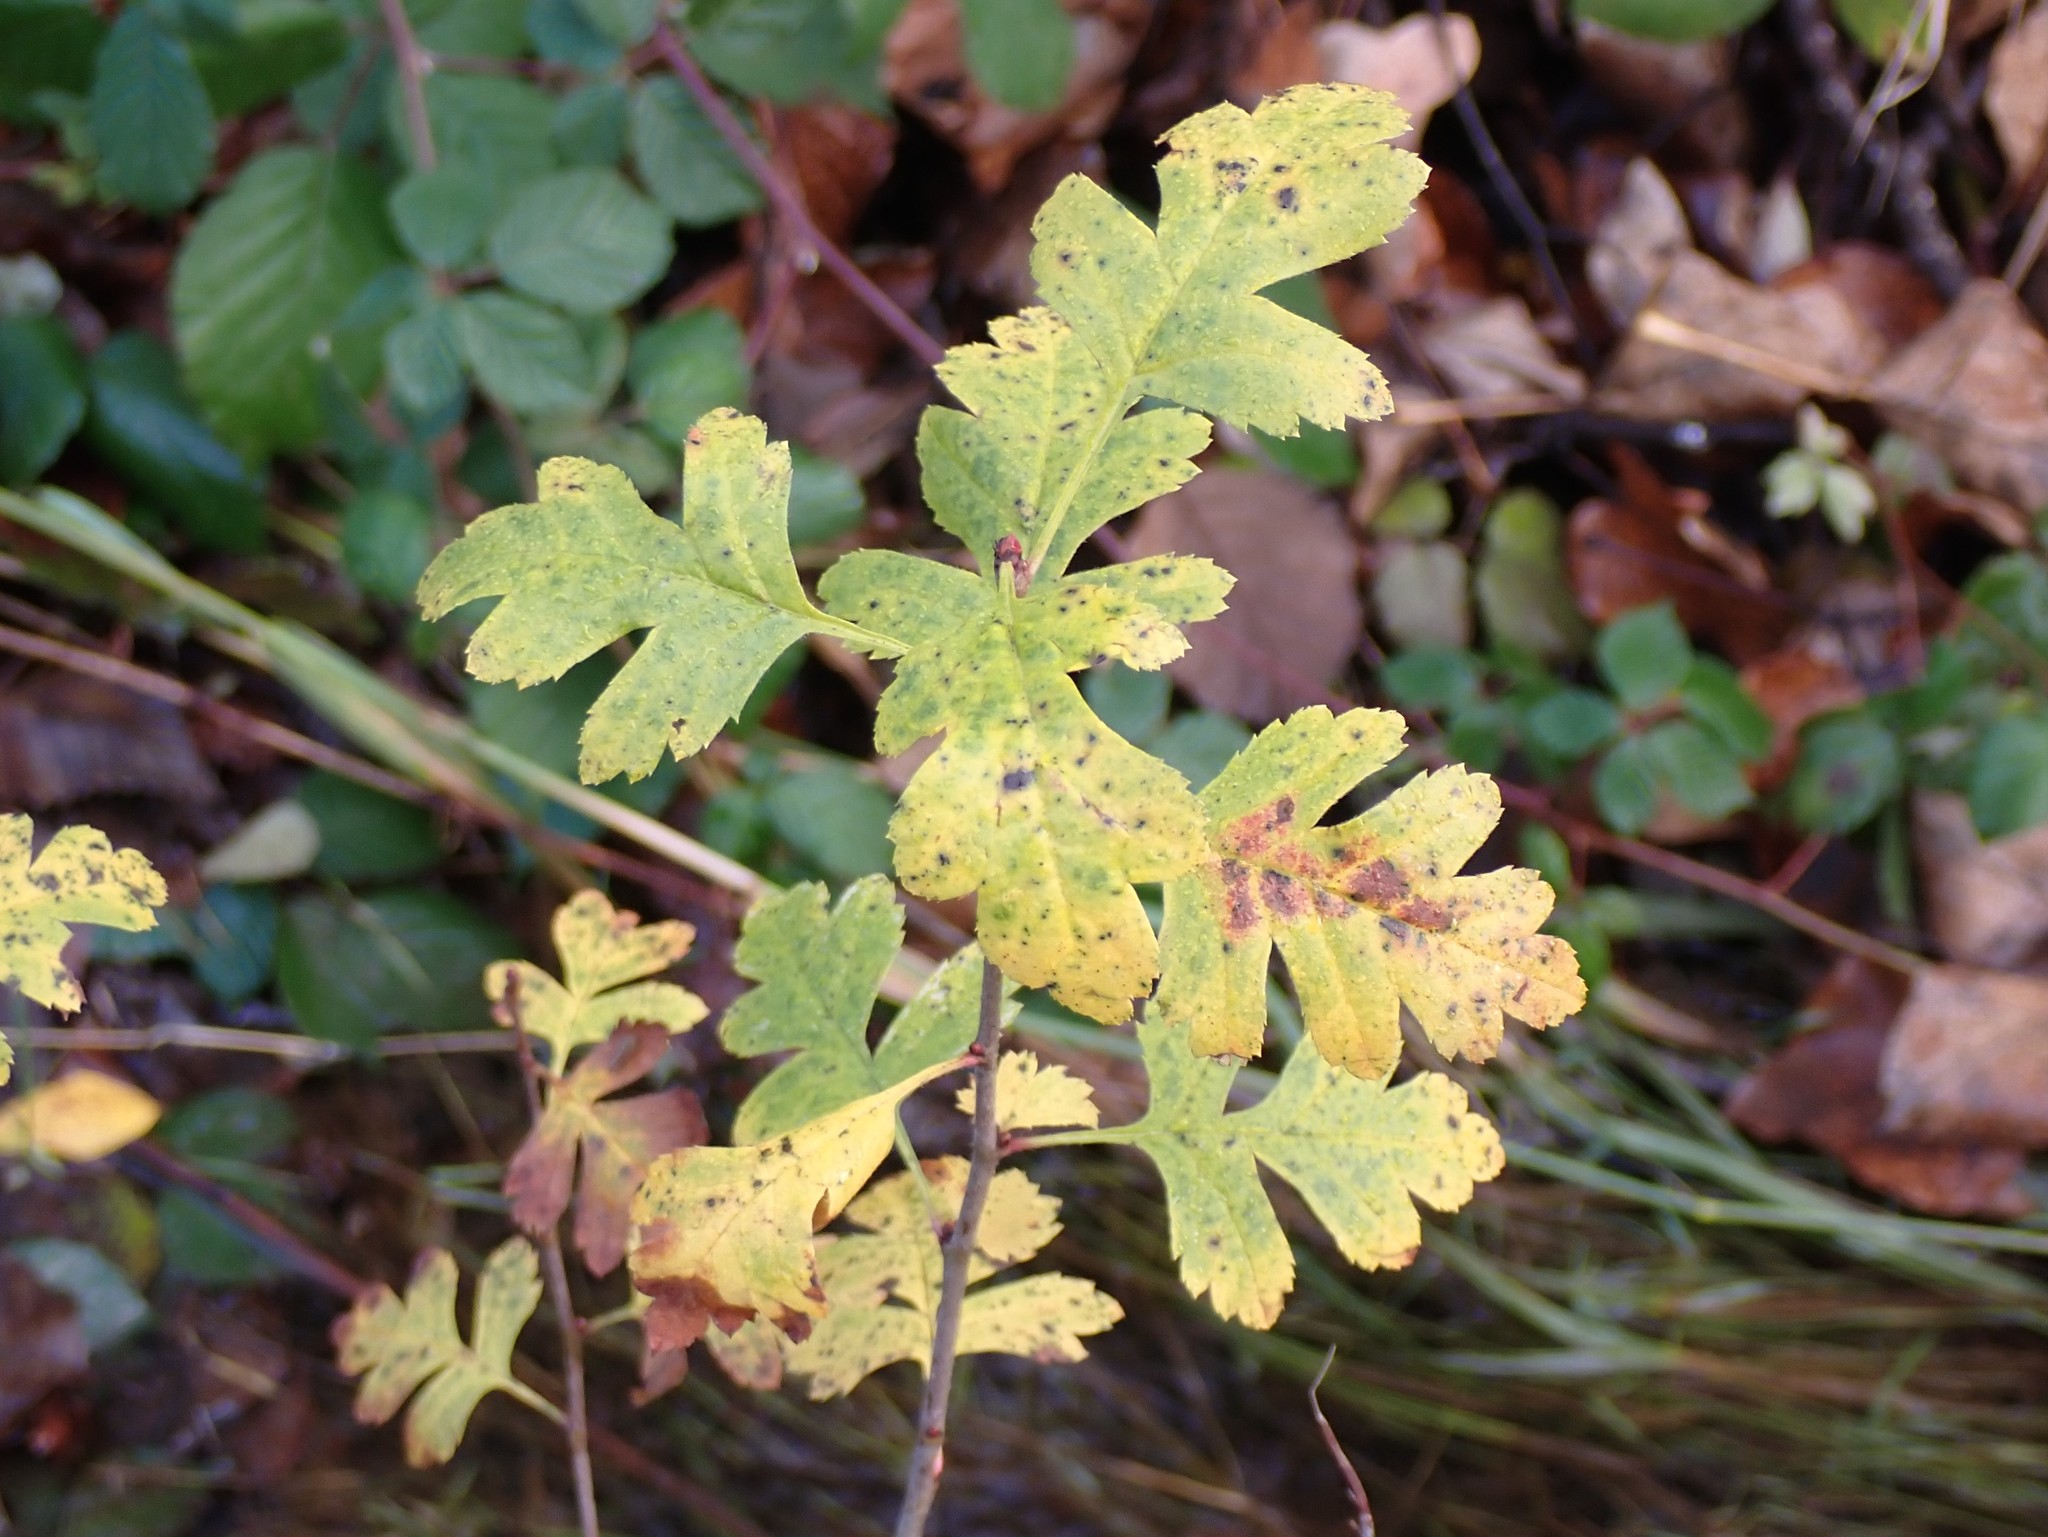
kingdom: Plantae
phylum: Tracheophyta
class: Magnoliopsida
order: Rosales
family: Rosaceae
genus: Crataegus
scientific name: Crataegus monogyna
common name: Hawthorn
